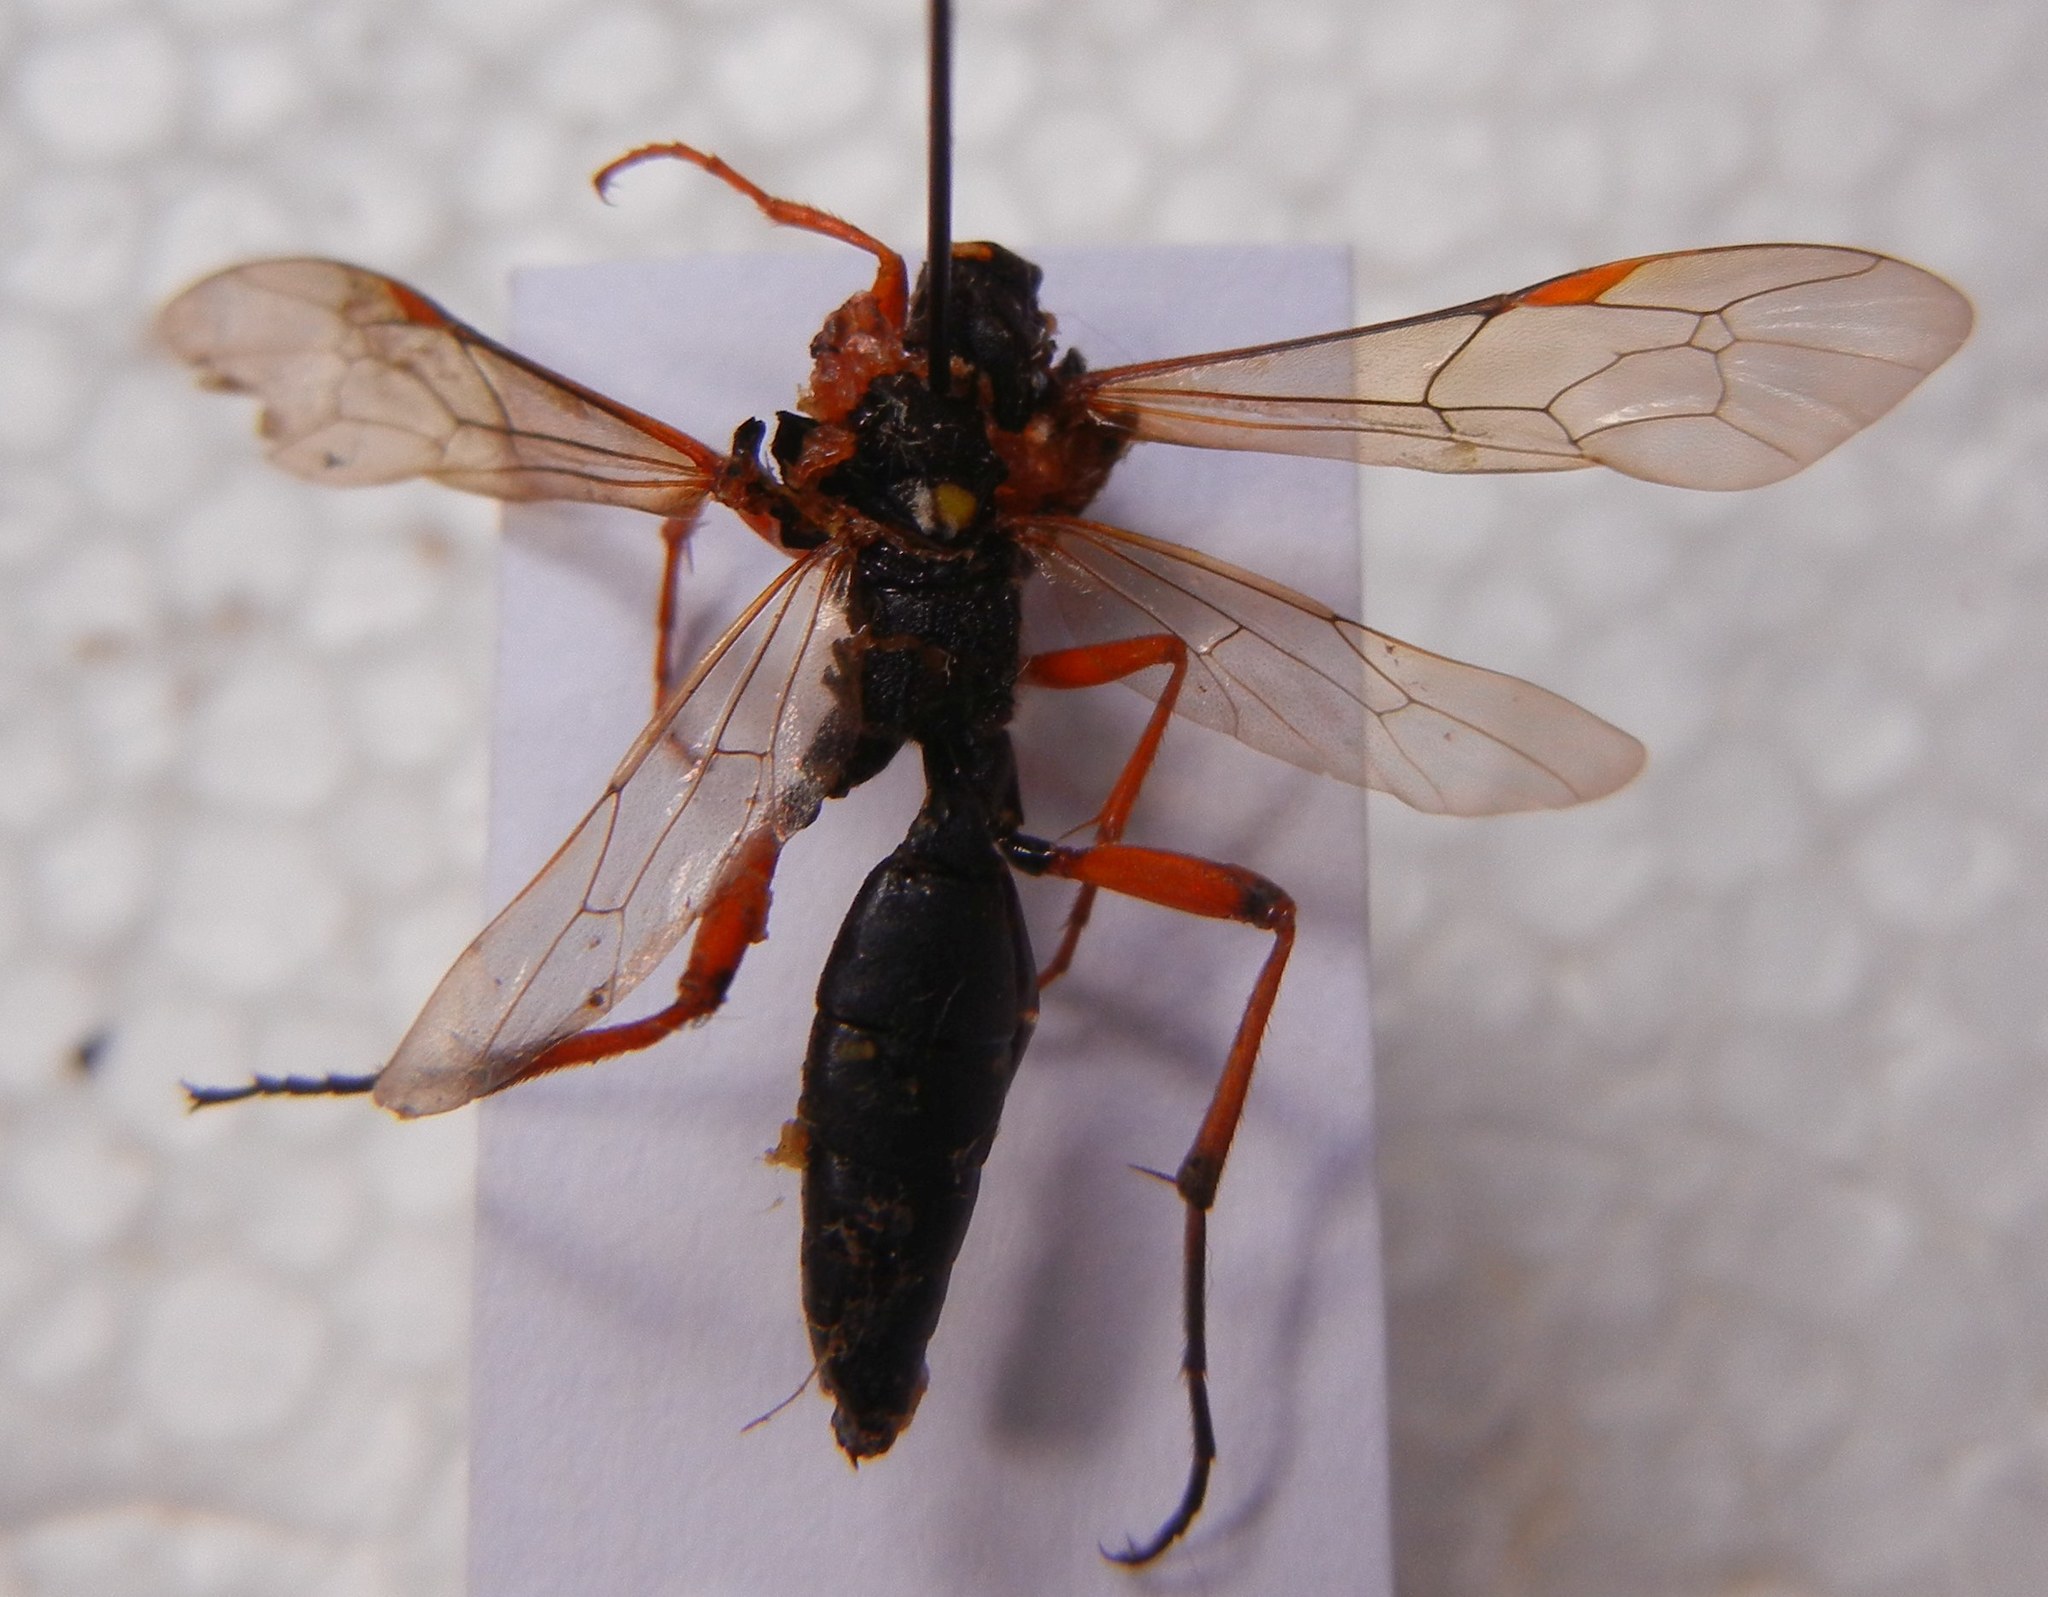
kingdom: Animalia
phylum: Arthropoda
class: Insecta
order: Hymenoptera
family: Ichneumonidae
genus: Diphyus
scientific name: Diphyus quadripunctorius
